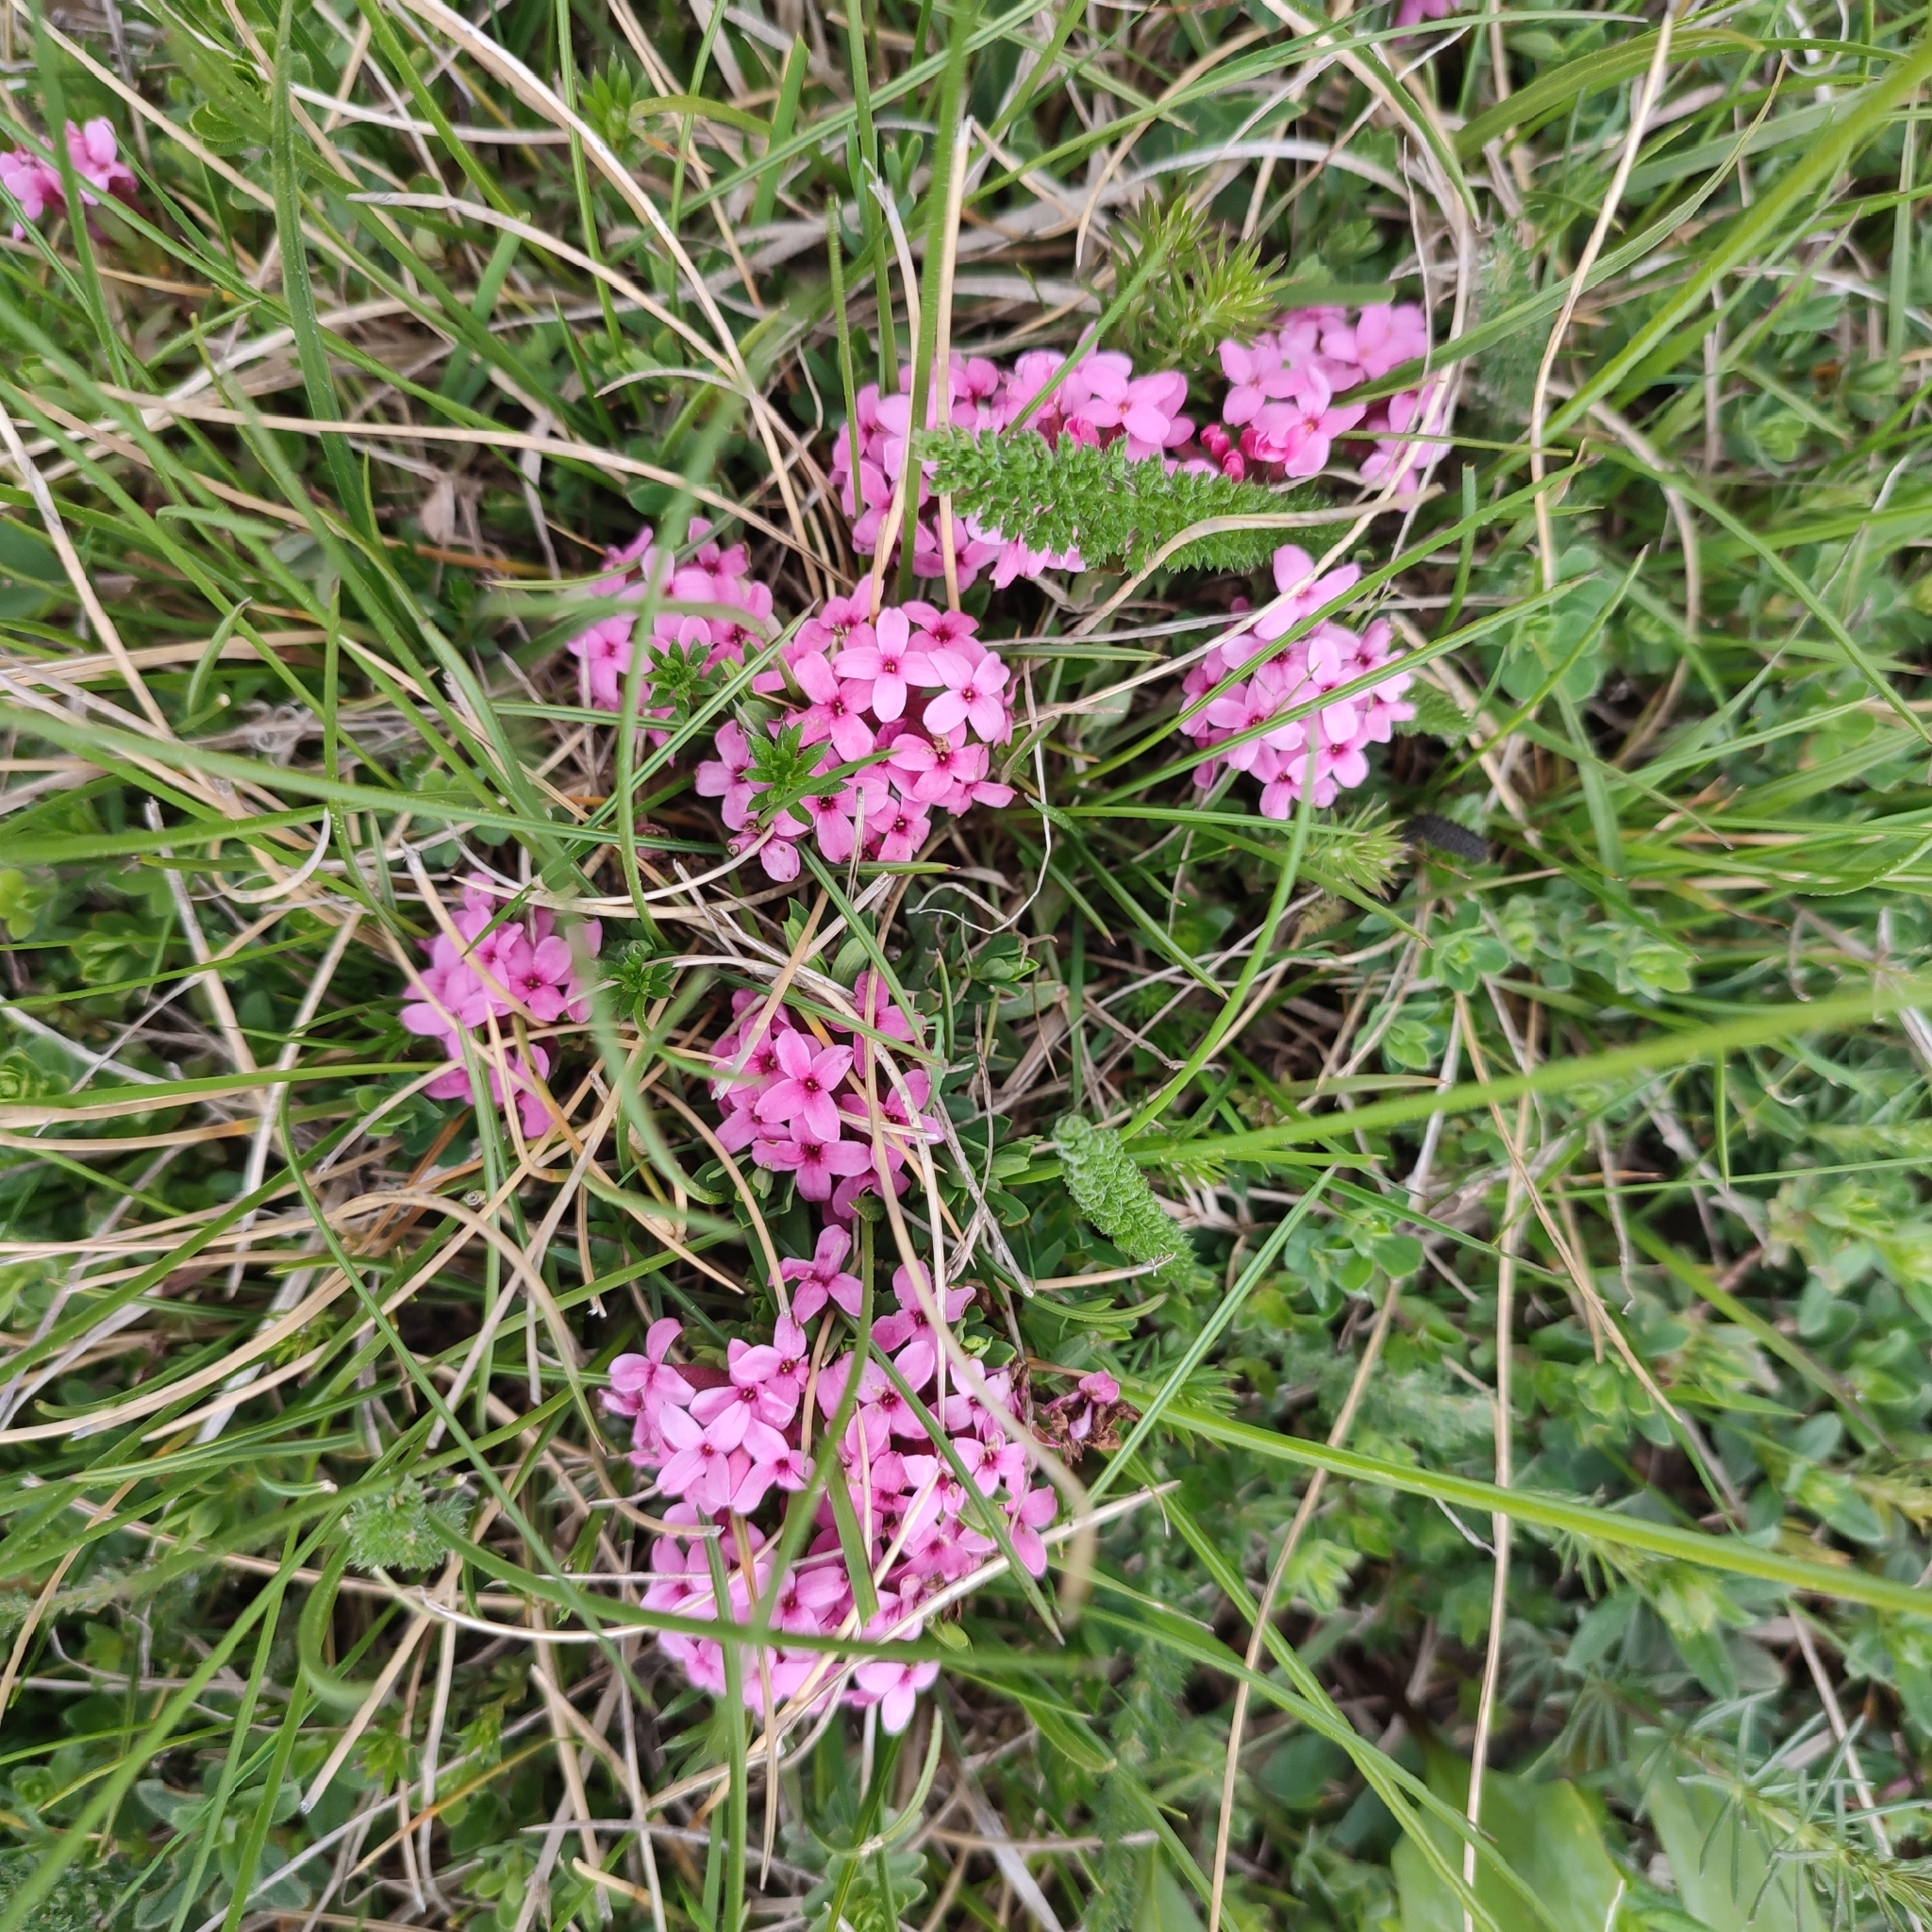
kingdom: Plantae
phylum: Tracheophyta
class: Magnoliopsida
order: Malvales
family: Thymelaeaceae
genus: Daphne
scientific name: Daphne cneorum
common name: Garland-flower
